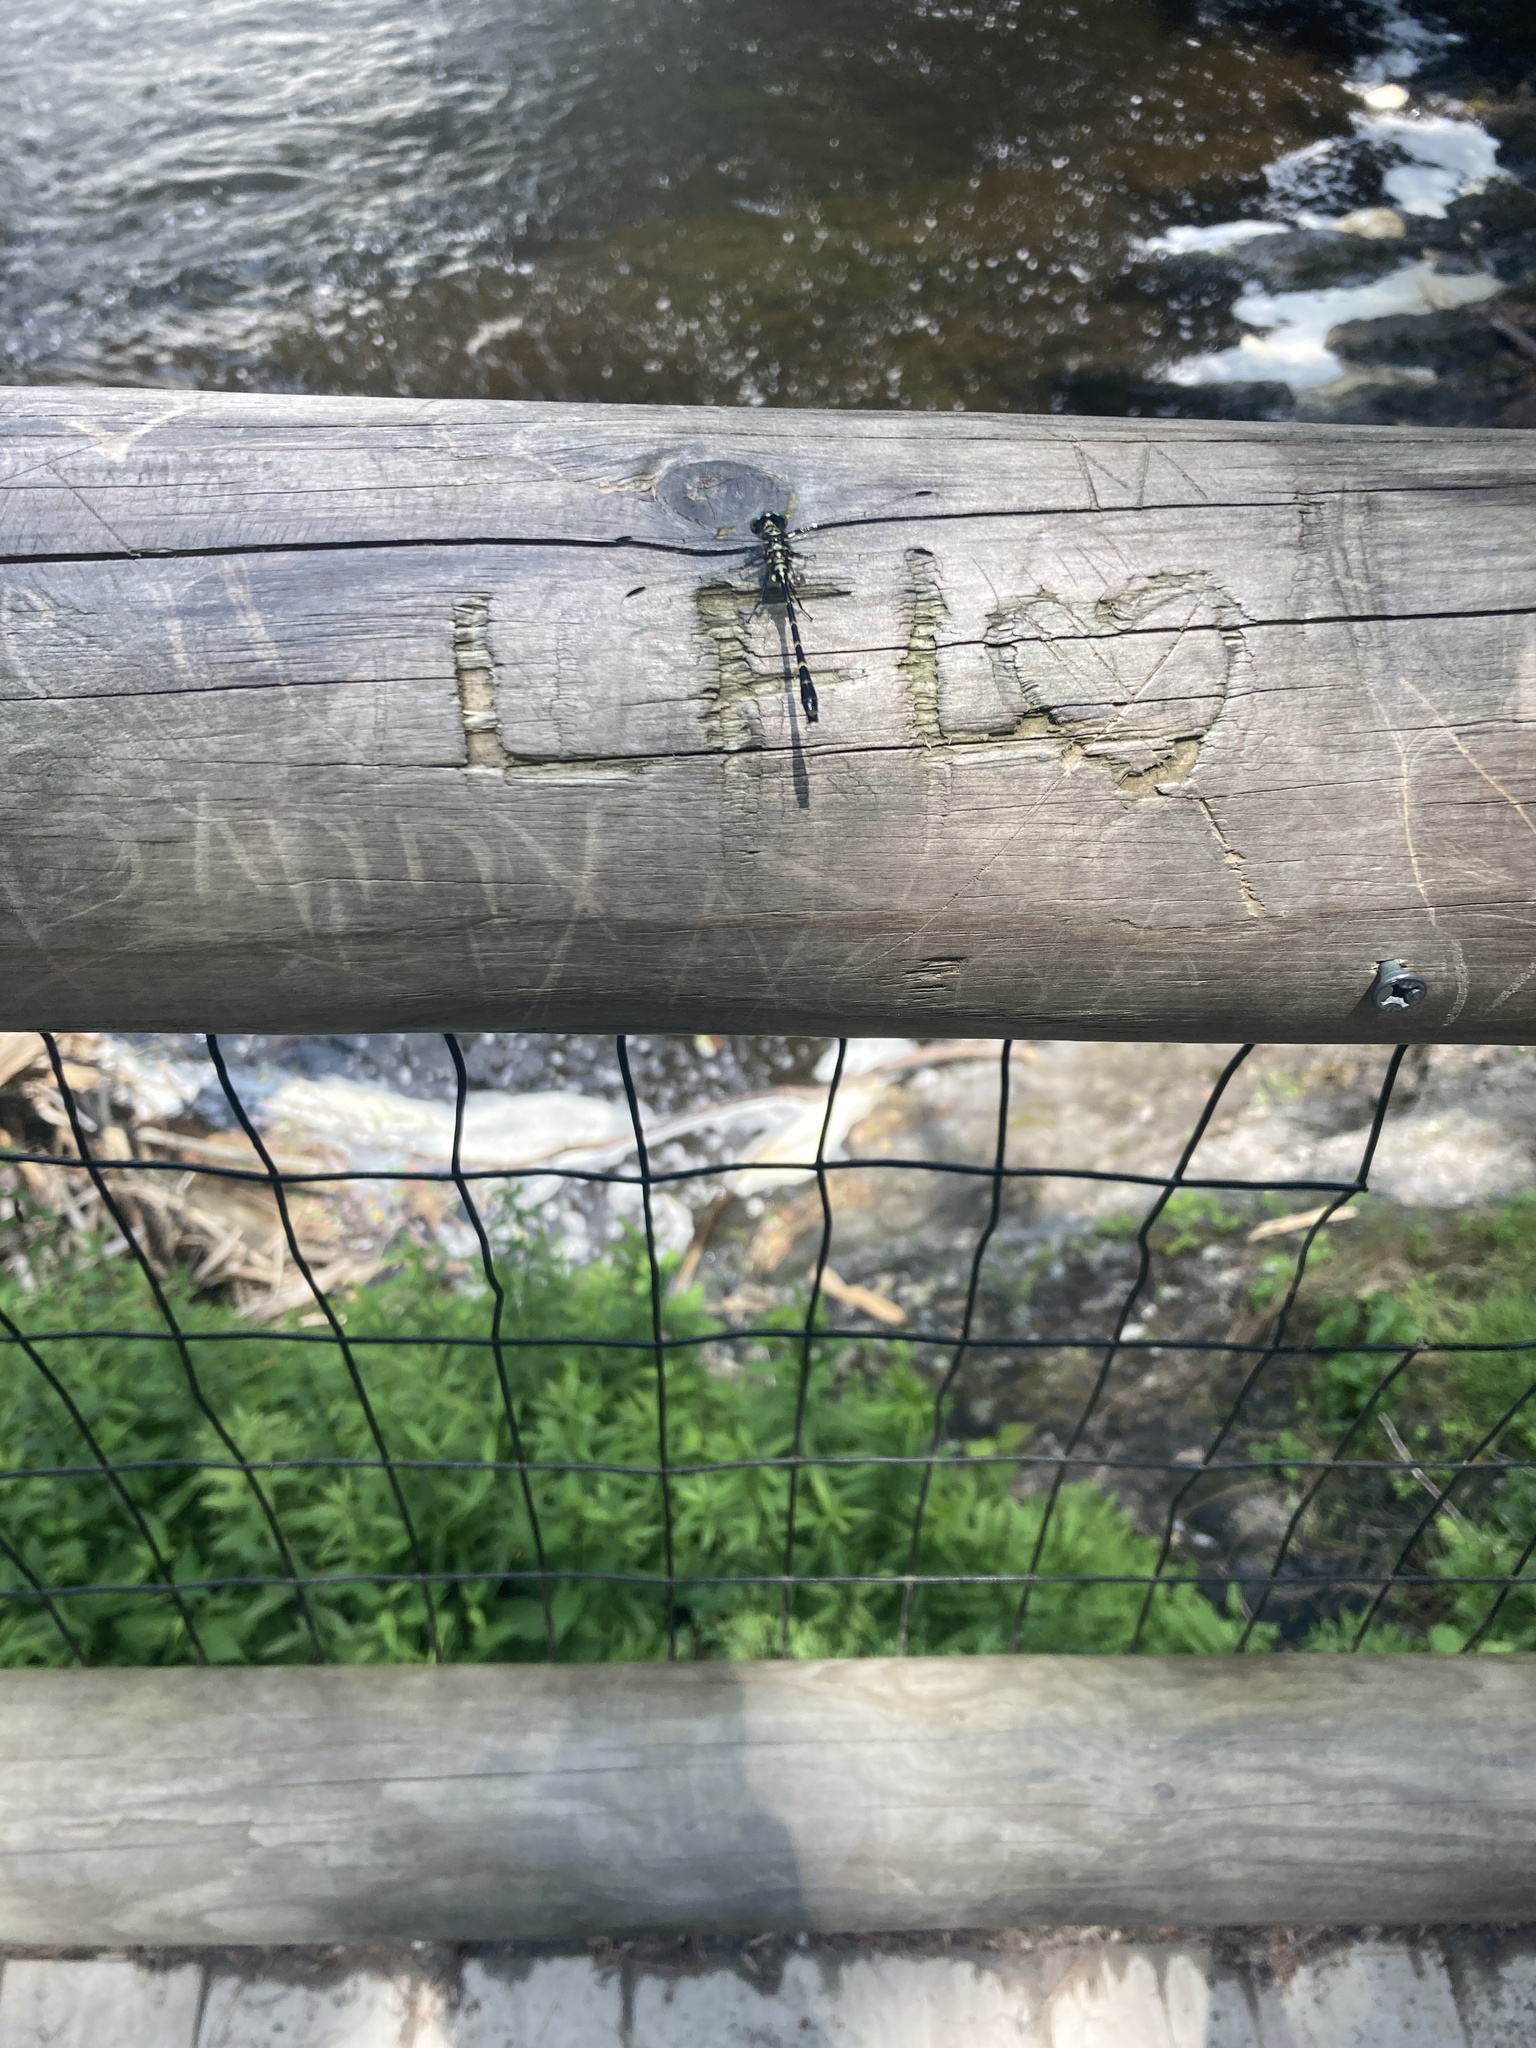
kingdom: Animalia
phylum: Arthropoda
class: Insecta
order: Odonata
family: Gomphidae
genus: Stylogomphus
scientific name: Stylogomphus albistylus
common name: Eastern least clubtail
